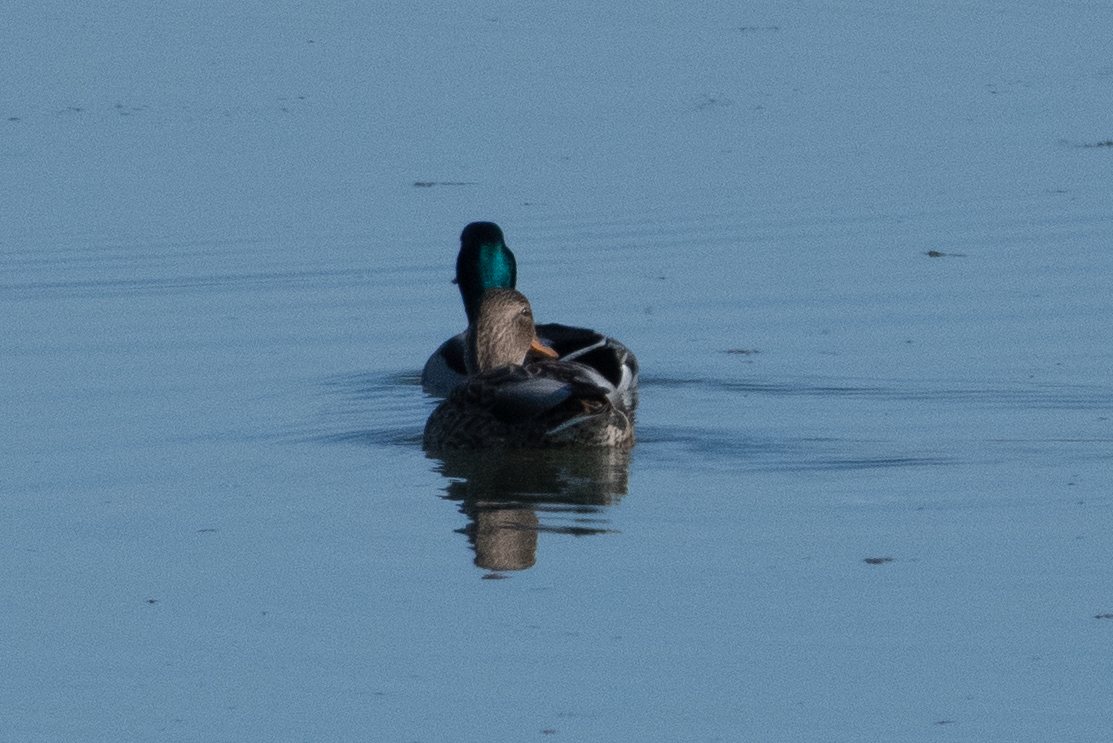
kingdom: Animalia
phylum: Chordata
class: Aves
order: Anseriformes
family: Anatidae
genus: Anas
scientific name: Anas platyrhynchos
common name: Mallard
